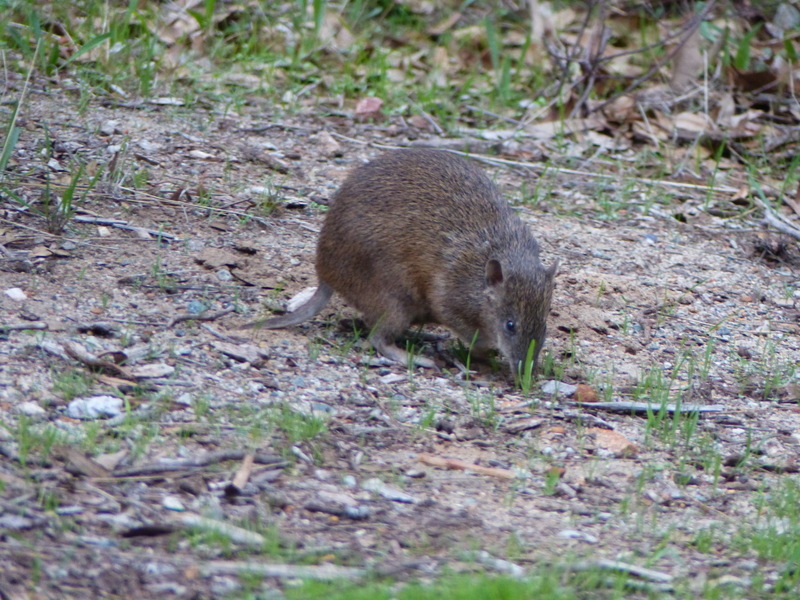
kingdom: Animalia
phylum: Chordata
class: Mammalia
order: Peramelemorphia
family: Peramelidae
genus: Isoodon
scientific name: Isoodon fusciventer
